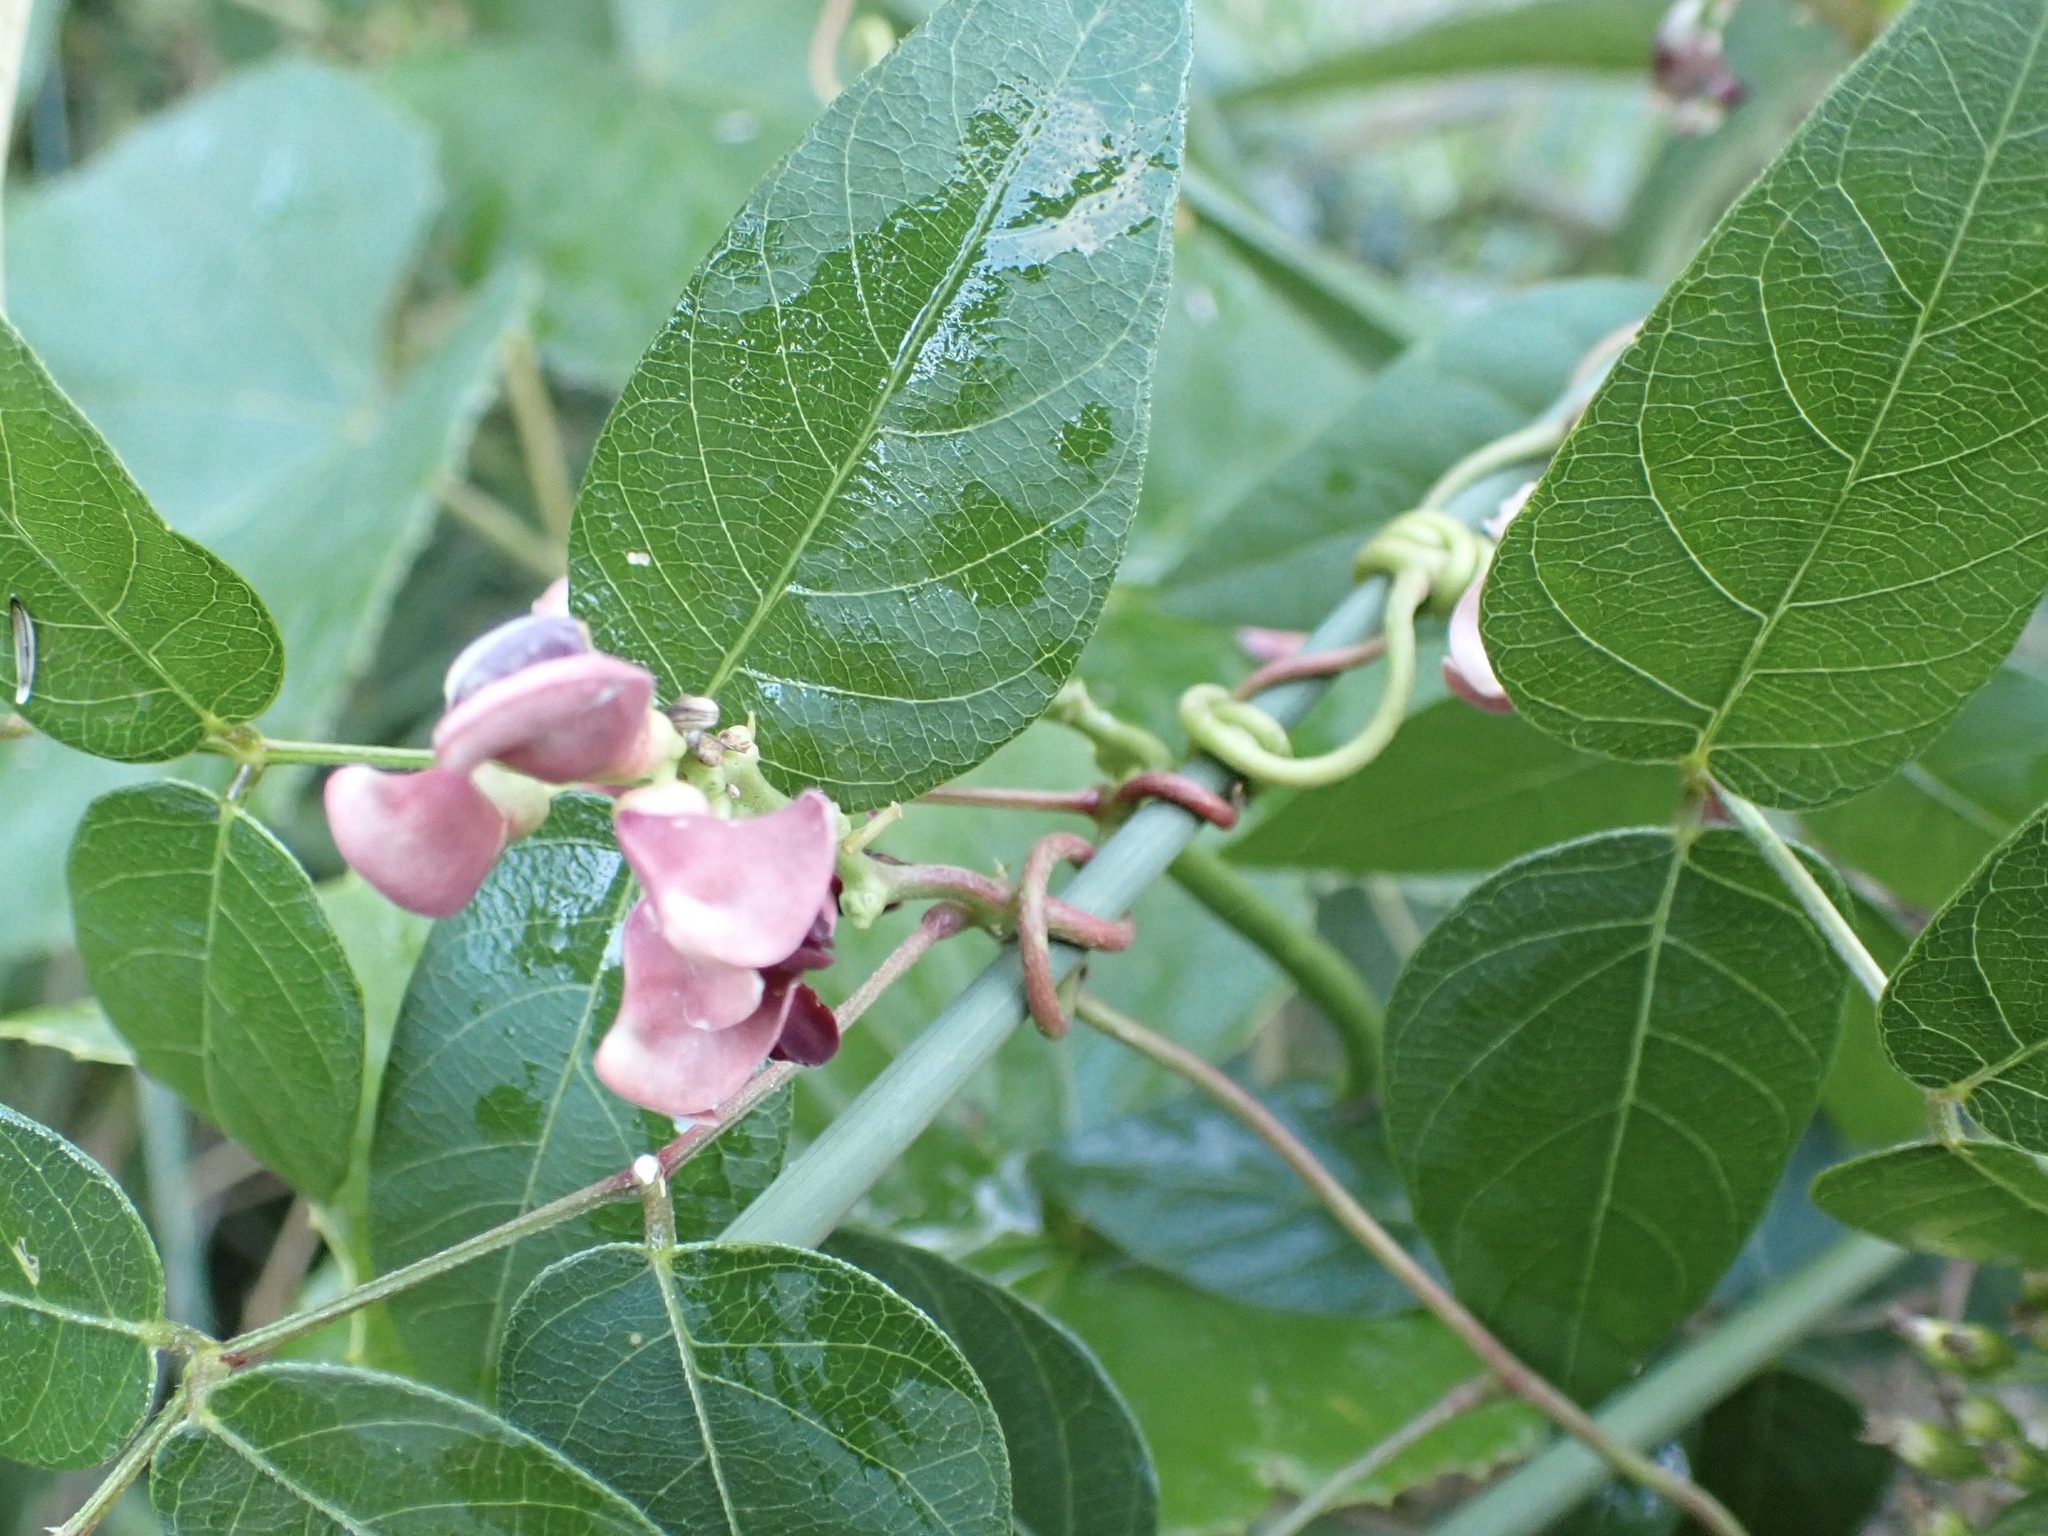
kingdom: Plantae
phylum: Tracheophyta
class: Magnoliopsida
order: Fabales
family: Fabaceae
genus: Apios
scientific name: Apios americana
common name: American potato-bean
